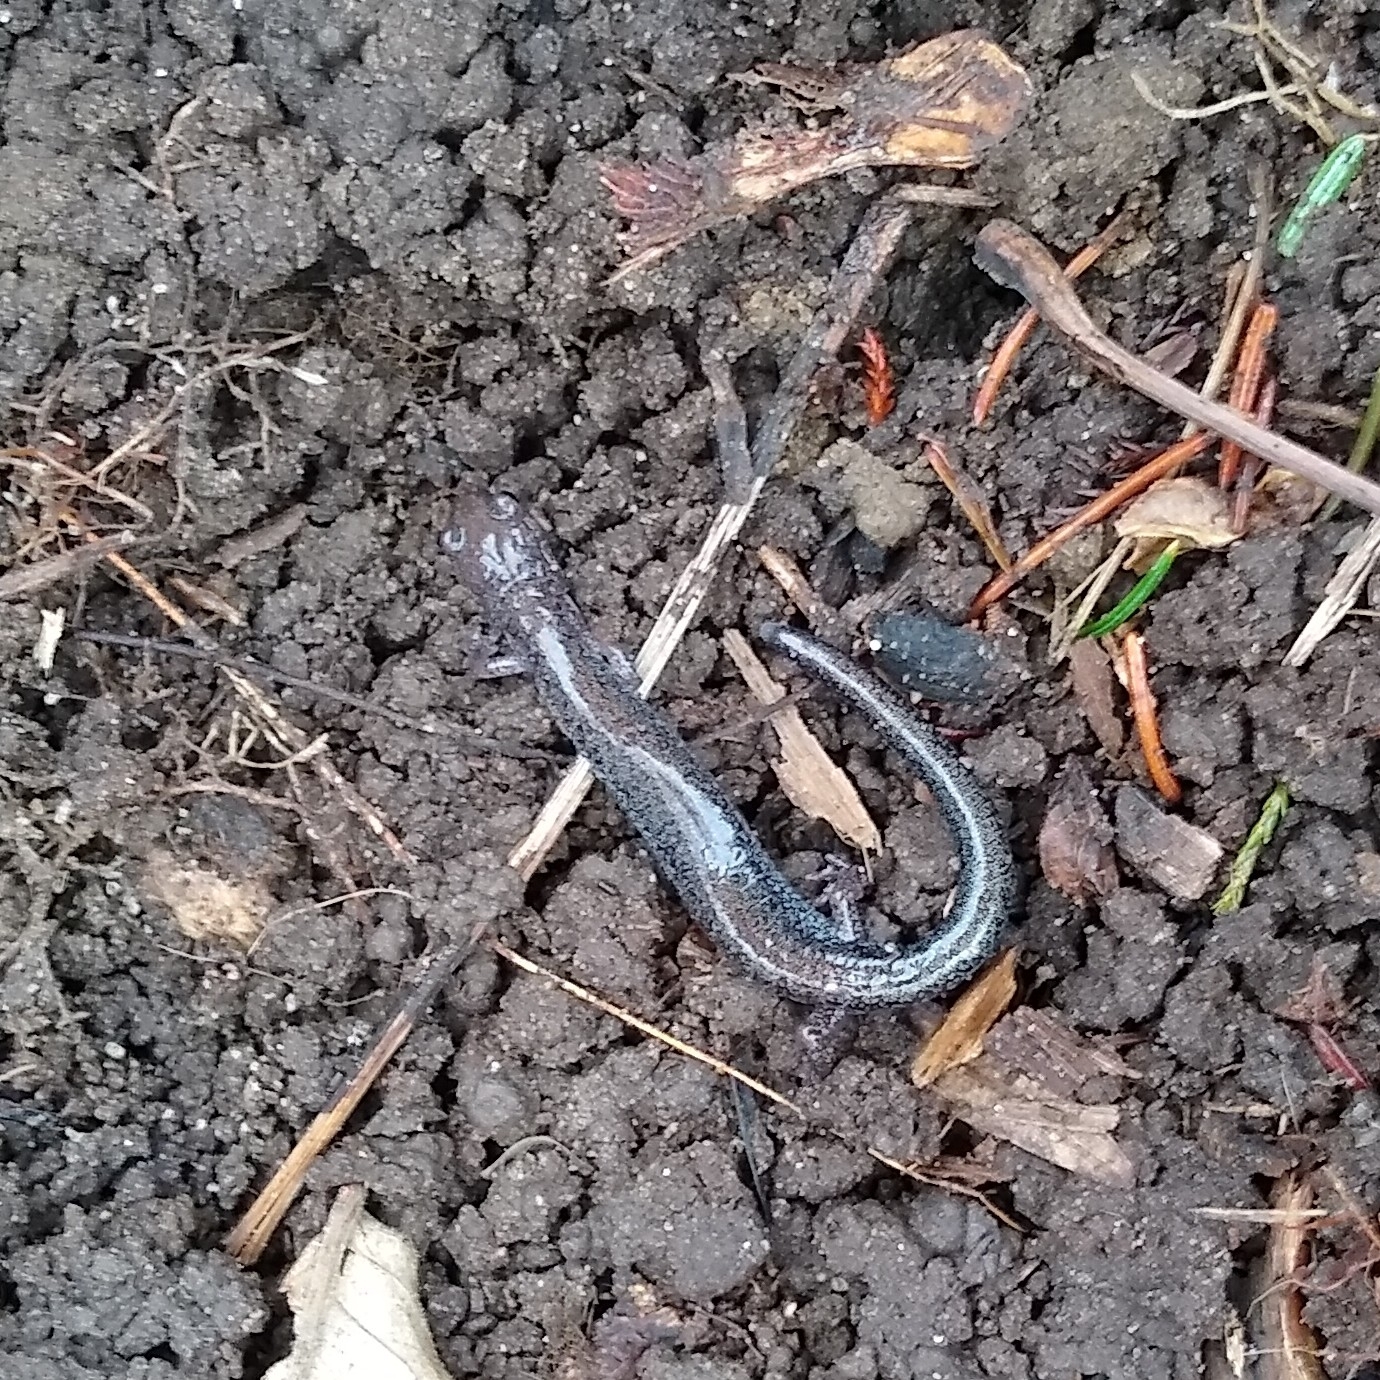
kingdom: Animalia
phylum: Chordata
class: Amphibia
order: Caudata
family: Plethodontidae
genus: Plethodon
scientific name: Plethodon cinereus
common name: Redback salamander
